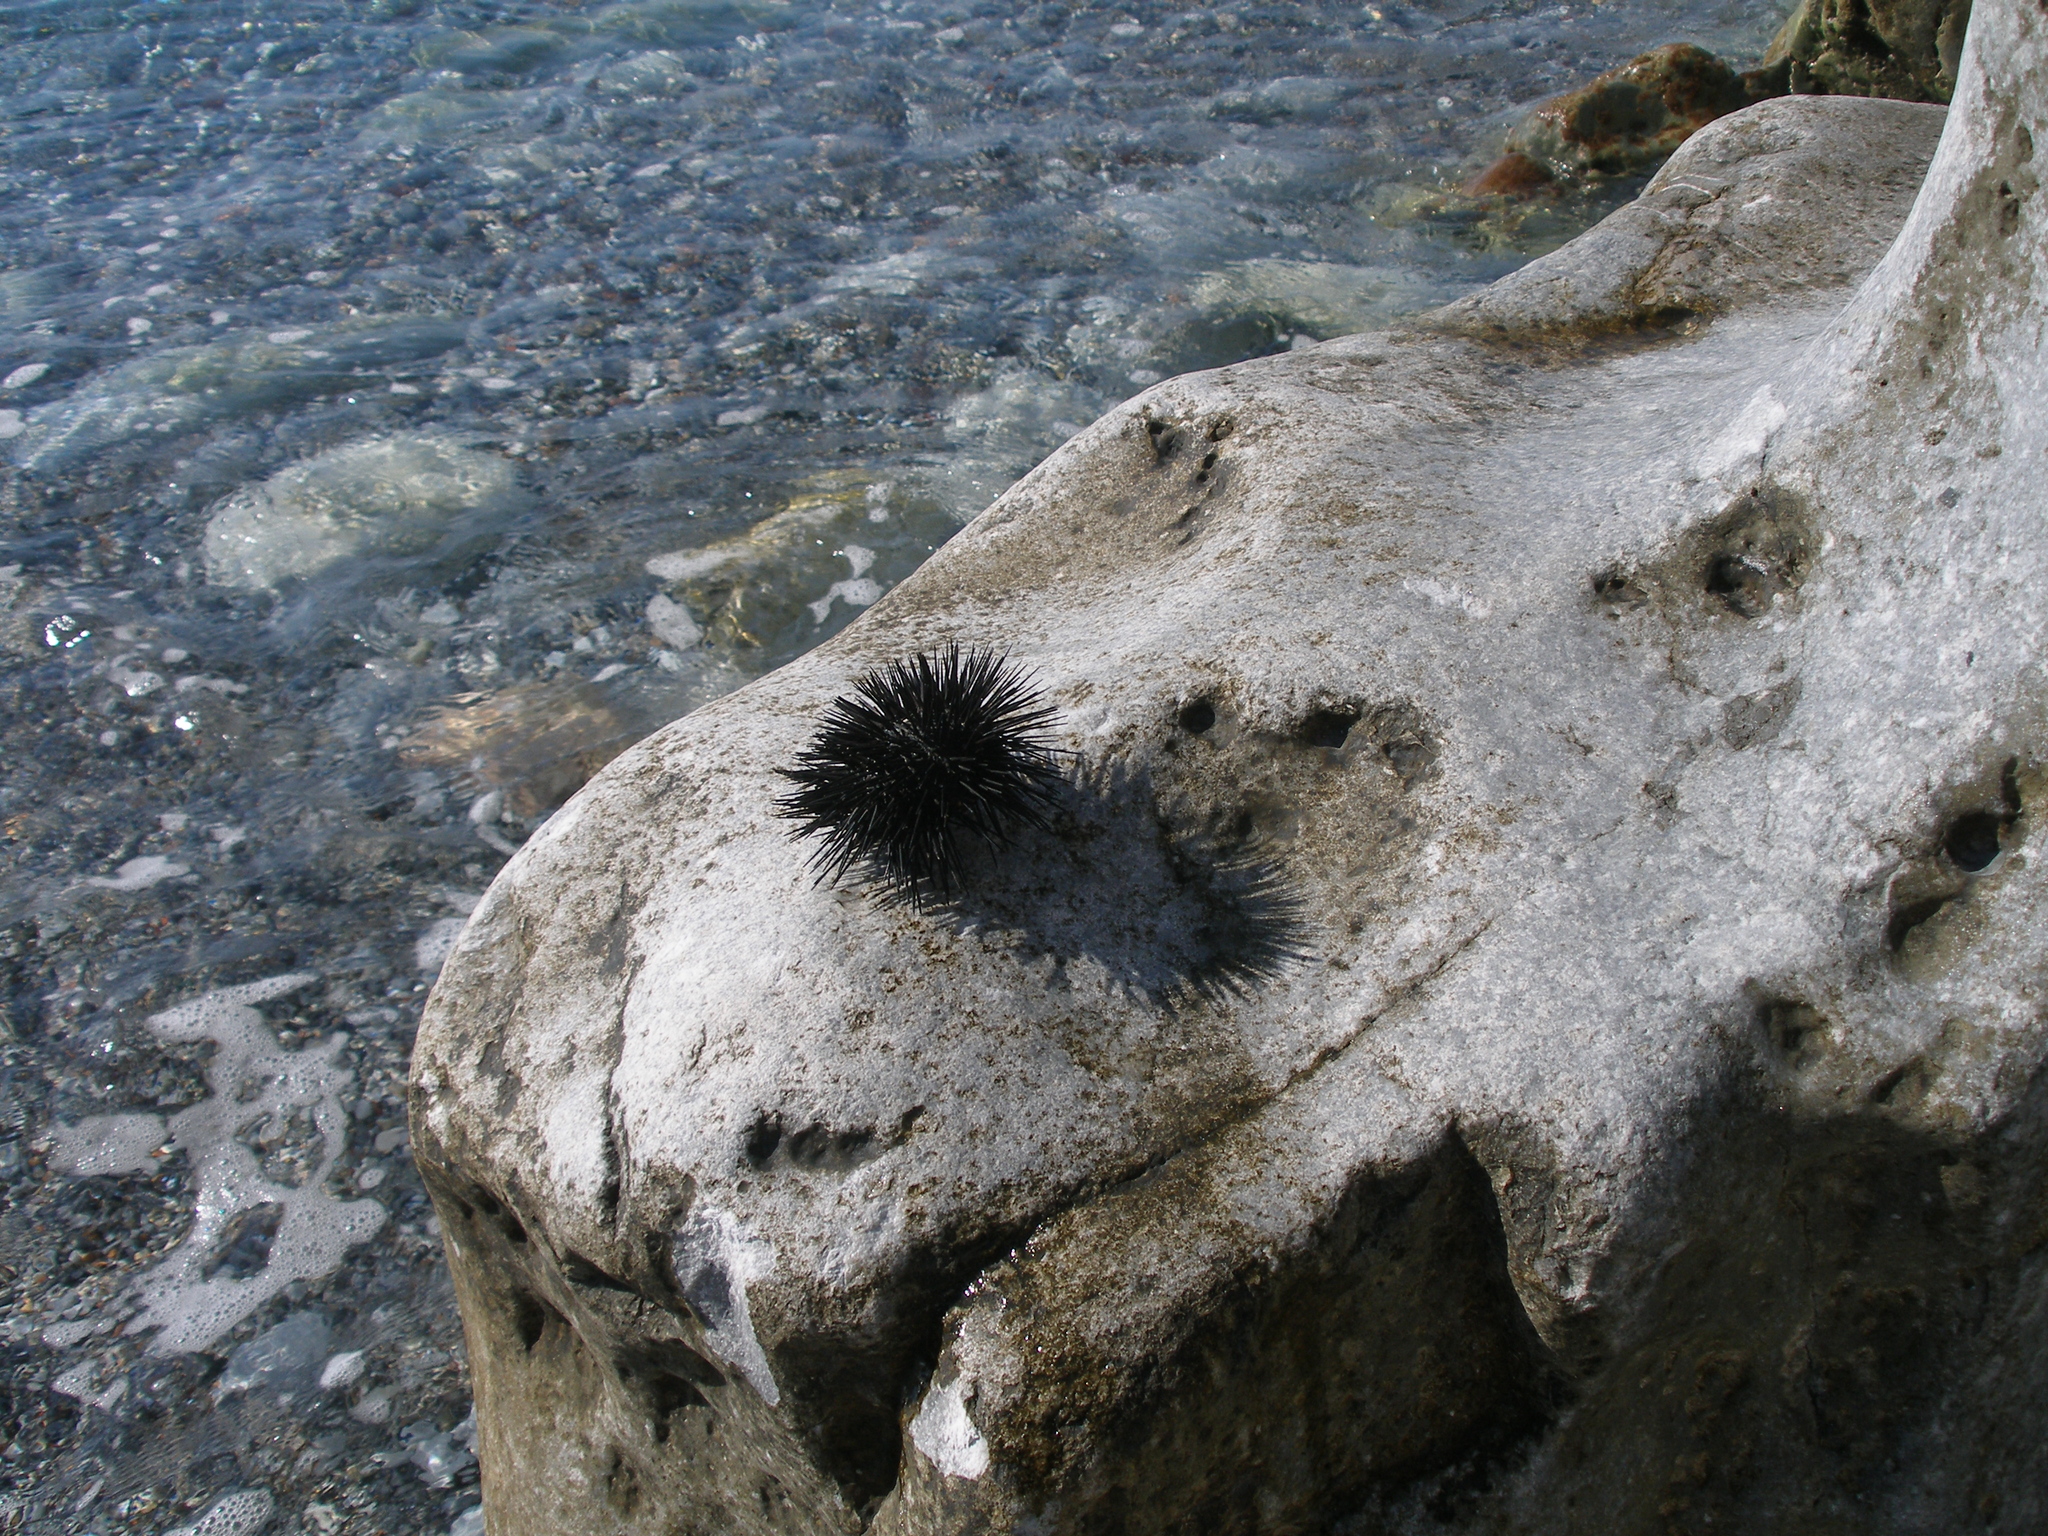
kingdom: Animalia
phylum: Echinodermata
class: Echinoidea
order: Arbacioida
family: Arbaciidae
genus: Arbacia
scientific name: Arbacia lixula
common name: Black sea urchin
